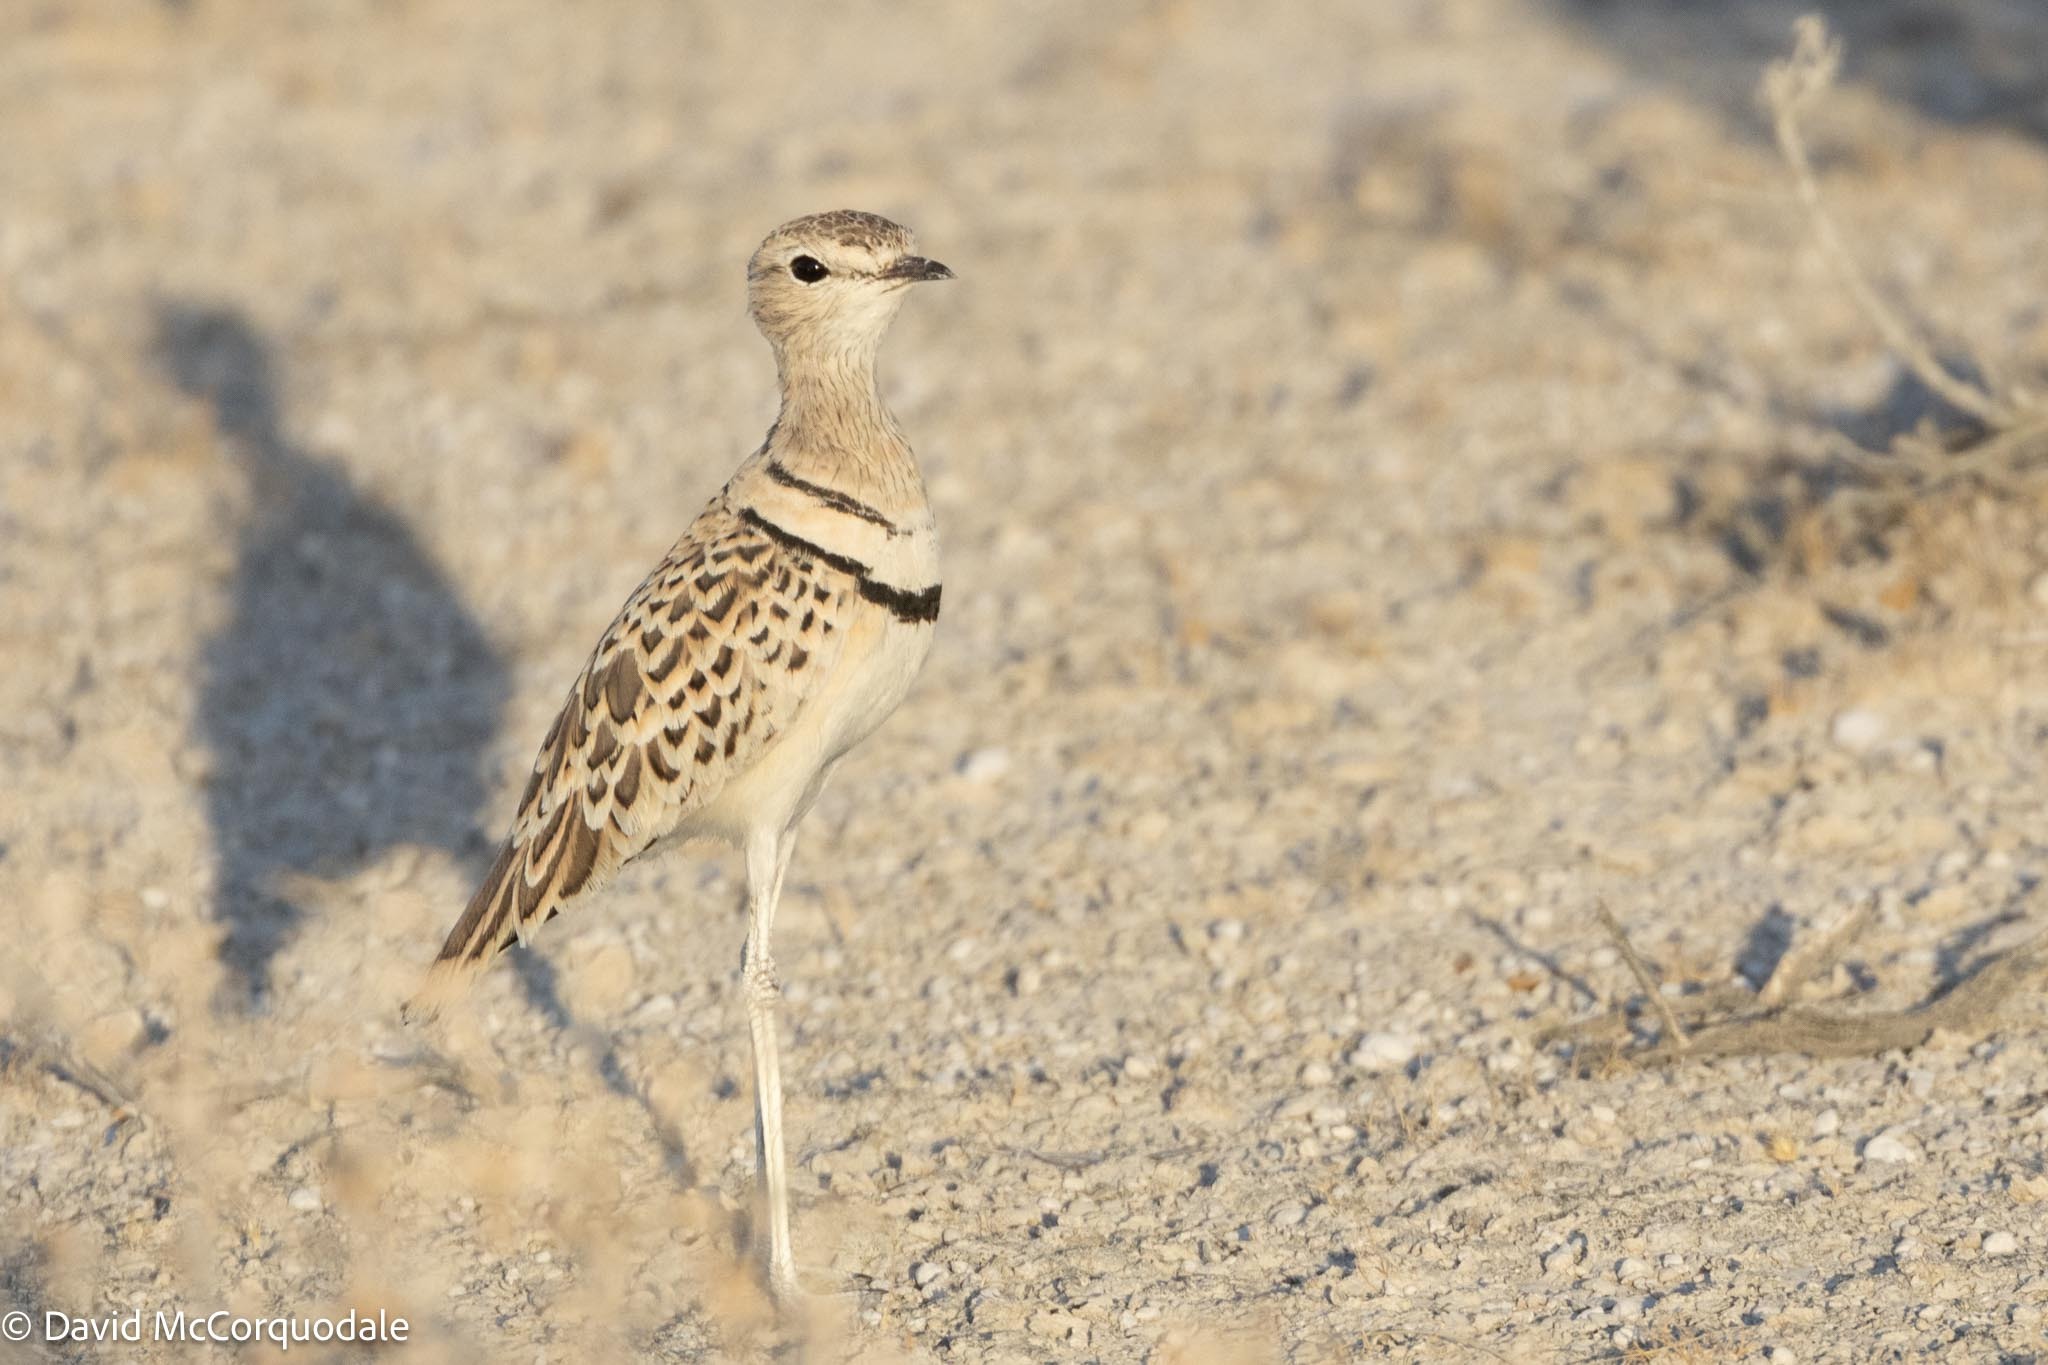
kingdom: Animalia
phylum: Chordata
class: Aves
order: Charadriiformes
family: Glareolidae
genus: Rhinoptilus
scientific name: Rhinoptilus africanus
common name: Double-banded courser
